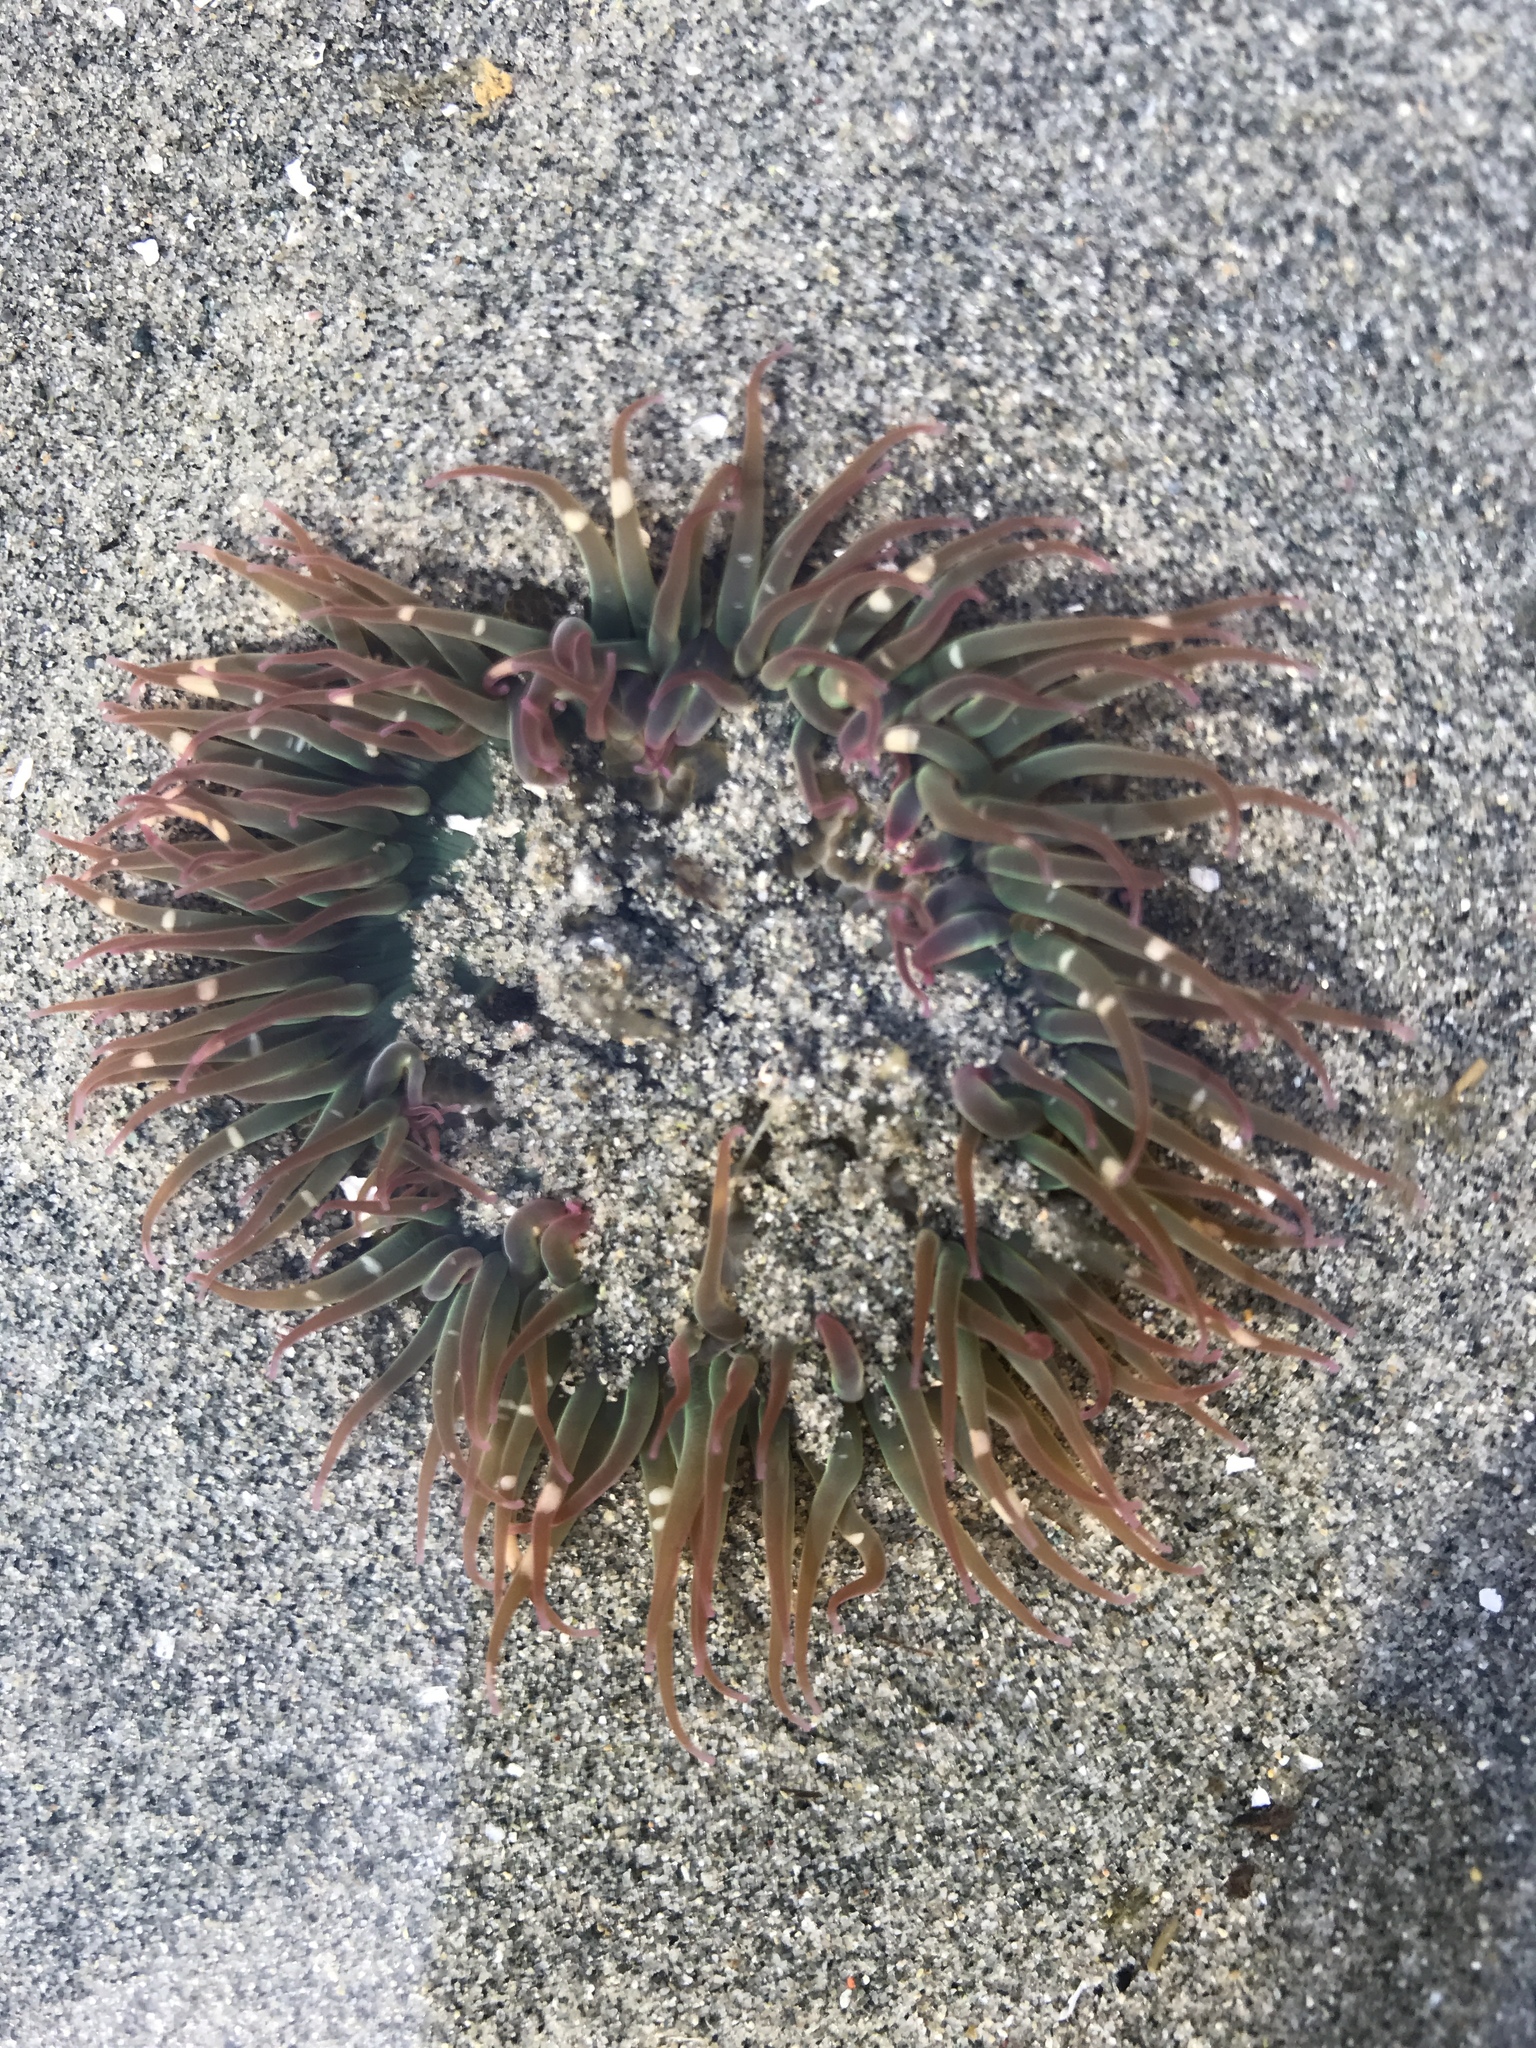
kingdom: Animalia
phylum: Cnidaria
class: Anthozoa
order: Actiniaria
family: Actiniidae
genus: Anthopleura
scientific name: Anthopleura elegantissima
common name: Clonal anemone
